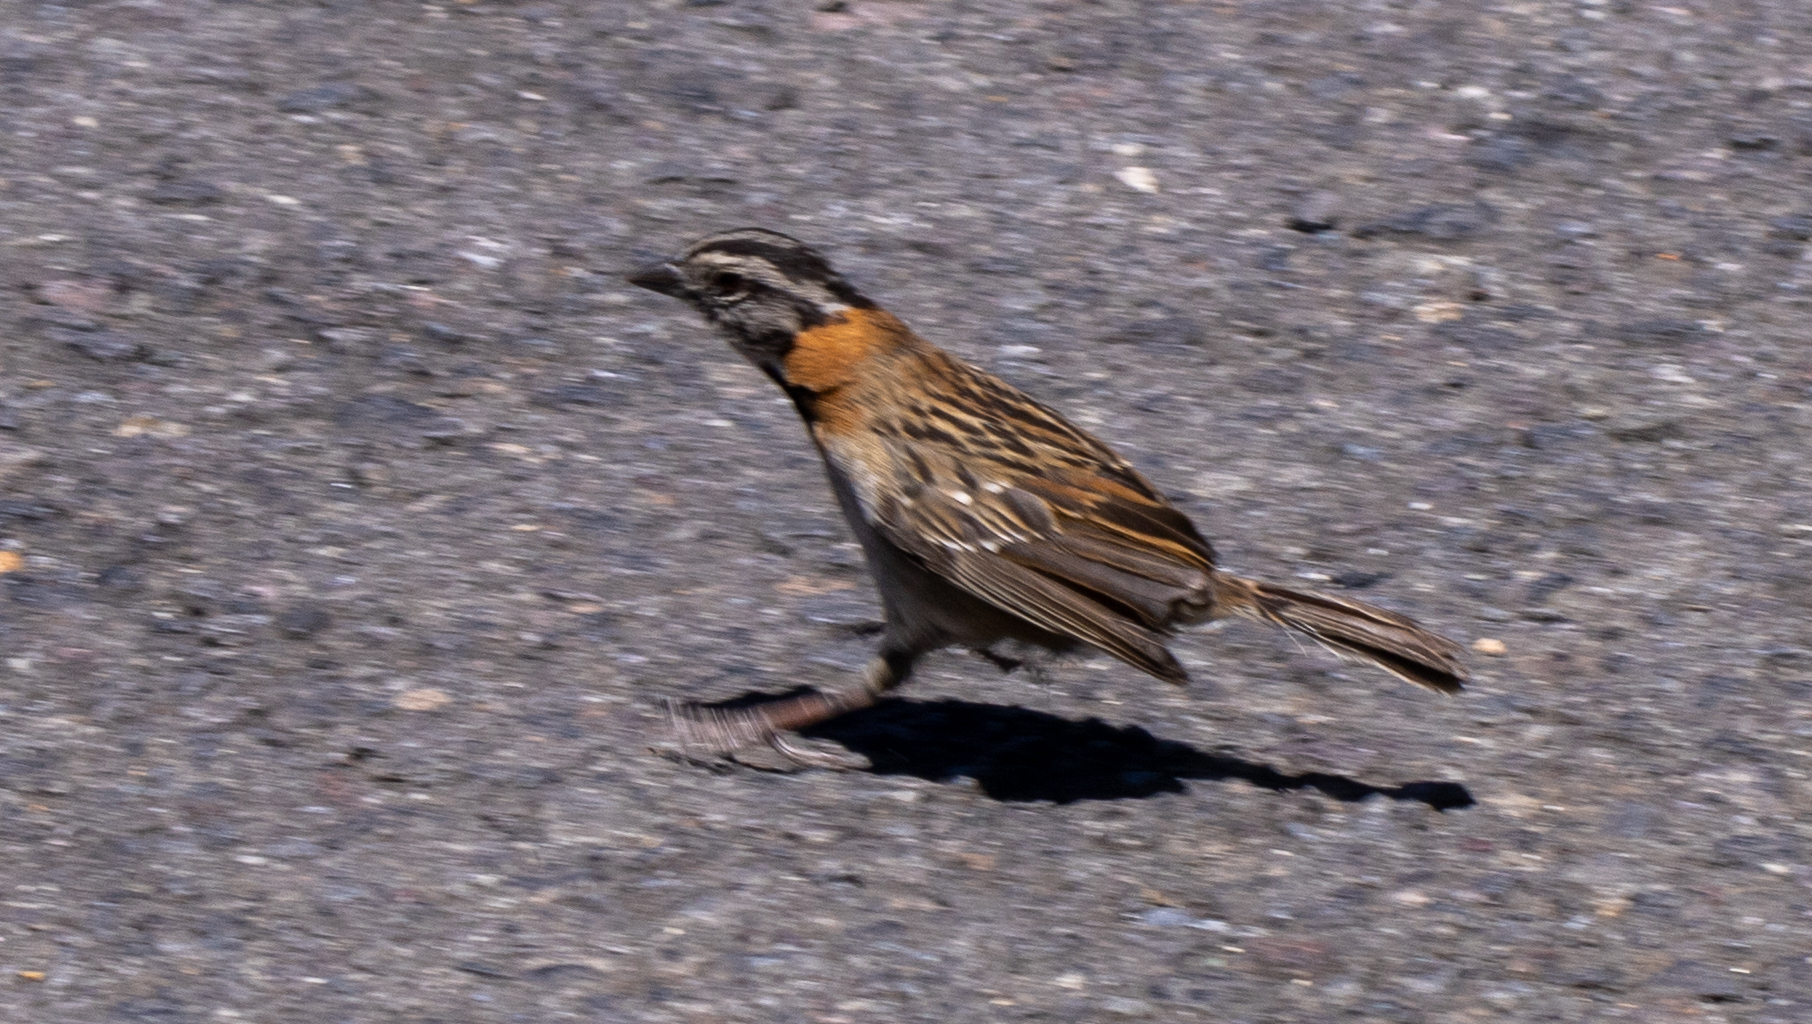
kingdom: Animalia
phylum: Chordata
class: Aves
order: Passeriformes
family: Passerellidae
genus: Zonotrichia
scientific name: Zonotrichia capensis
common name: Rufous-collared sparrow
